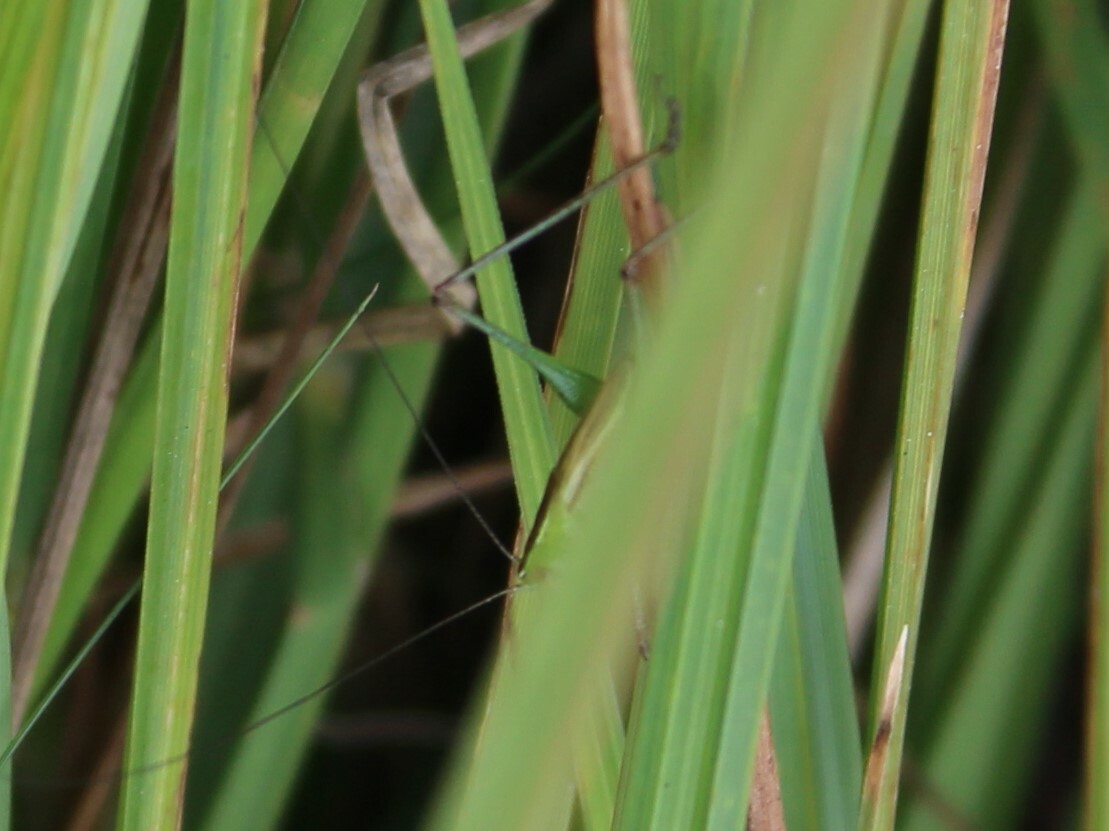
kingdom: Animalia
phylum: Arthropoda
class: Insecta
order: Orthoptera
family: Tettigoniidae
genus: Conocephalus
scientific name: Conocephalus
